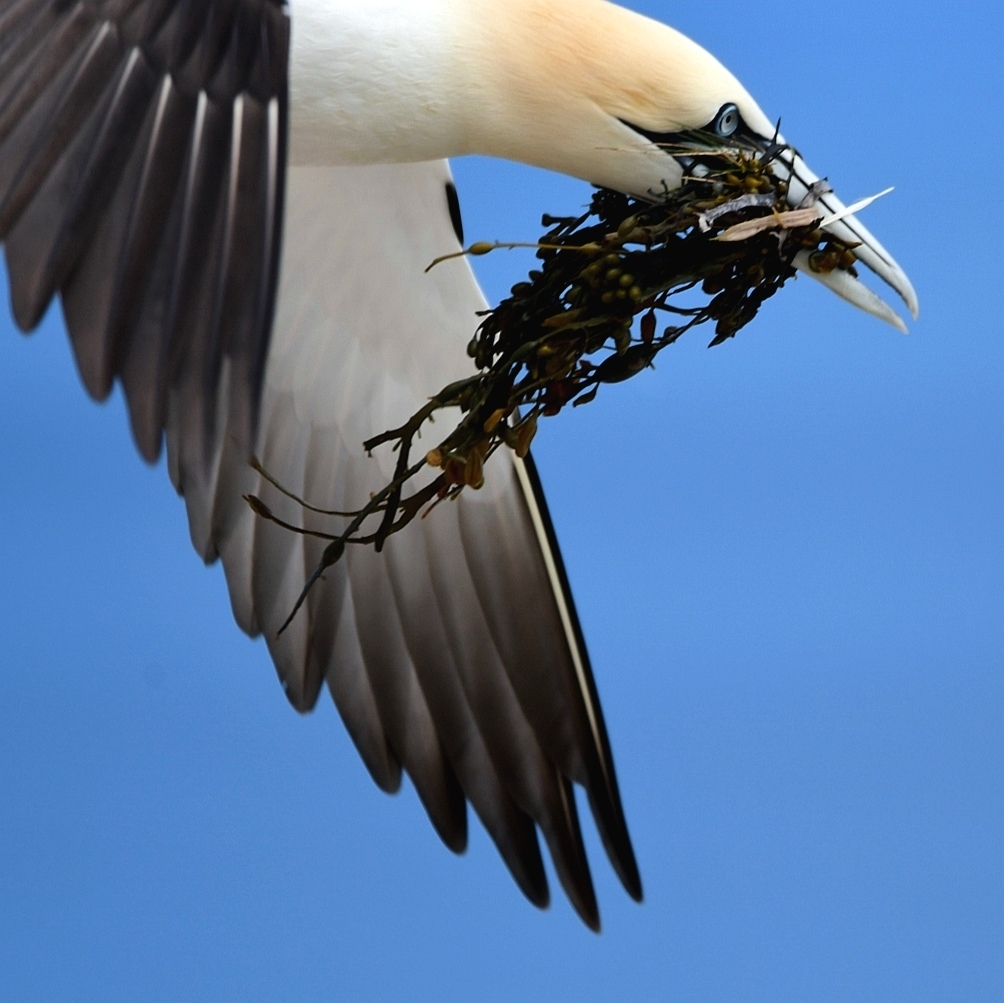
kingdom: Animalia
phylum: Chordata
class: Aves
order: Suliformes
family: Sulidae
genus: Morus
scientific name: Morus bassanus
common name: Northern gannet
